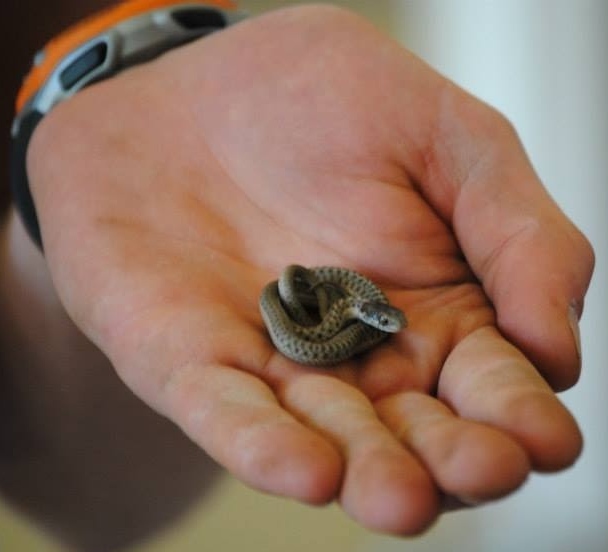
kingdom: Animalia
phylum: Chordata
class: Squamata
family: Colubridae
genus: Thamnophis
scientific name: Thamnophis elegans
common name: Western terrestrial garter snake
